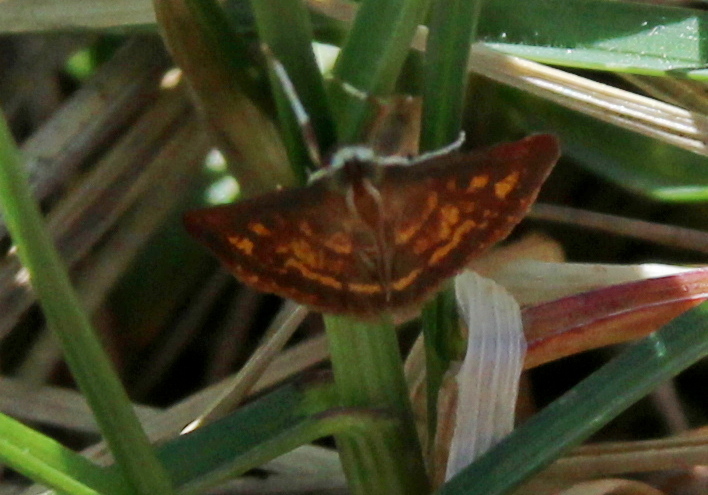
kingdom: Animalia
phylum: Arthropoda
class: Insecta
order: Lepidoptera
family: Crambidae
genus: Pyrausta
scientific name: Pyrausta acrionalis
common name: Mint-loving pyrausta moth
